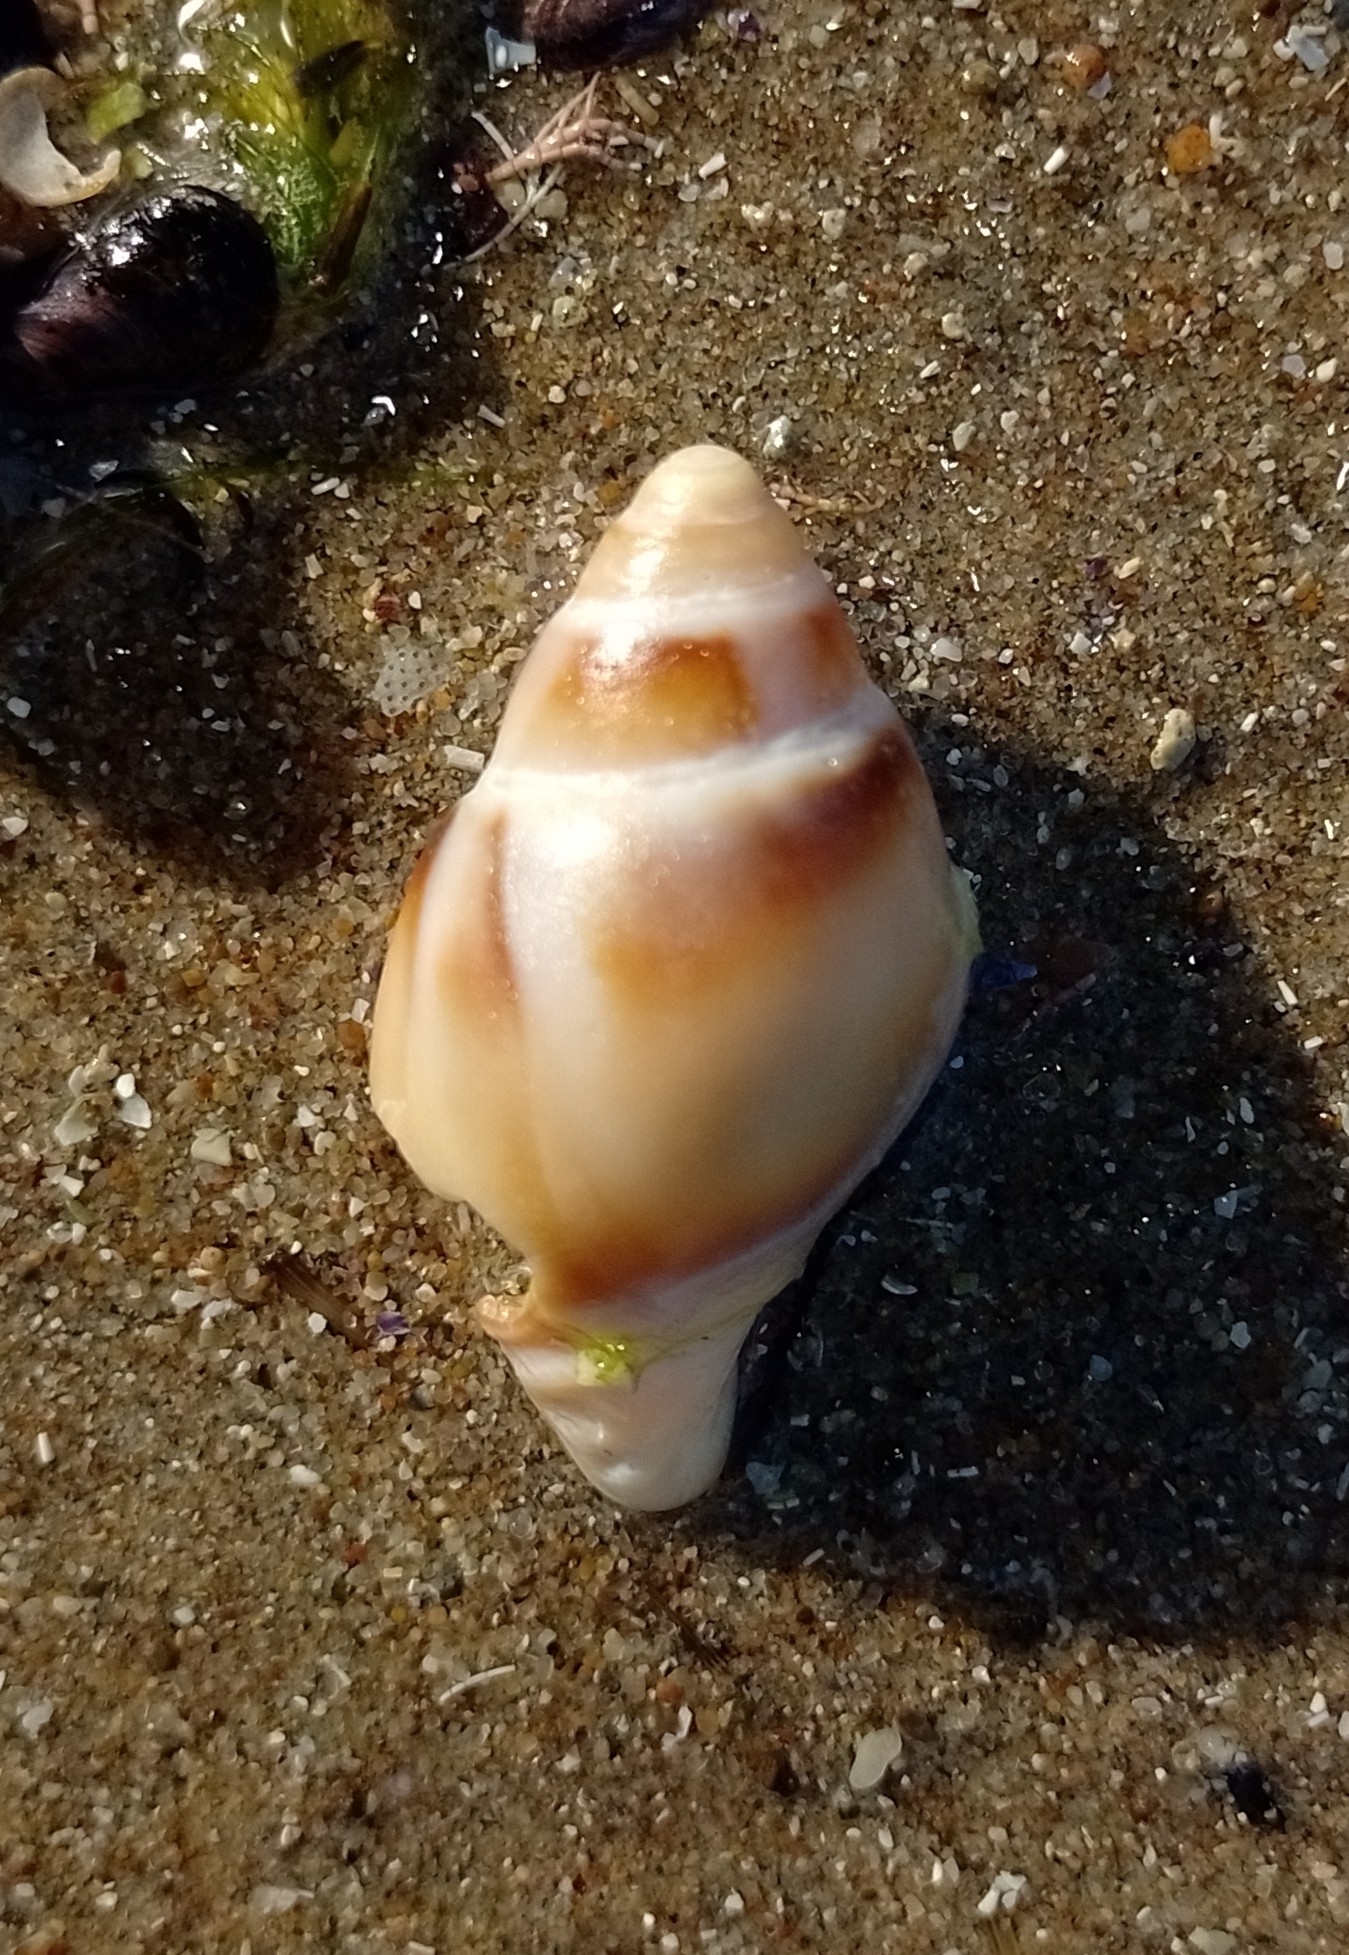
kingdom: Animalia
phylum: Mollusca
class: Gastropoda
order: Neogastropoda
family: Buccinanopsidae
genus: Buccinastrum
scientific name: Buccinastrum deforme
